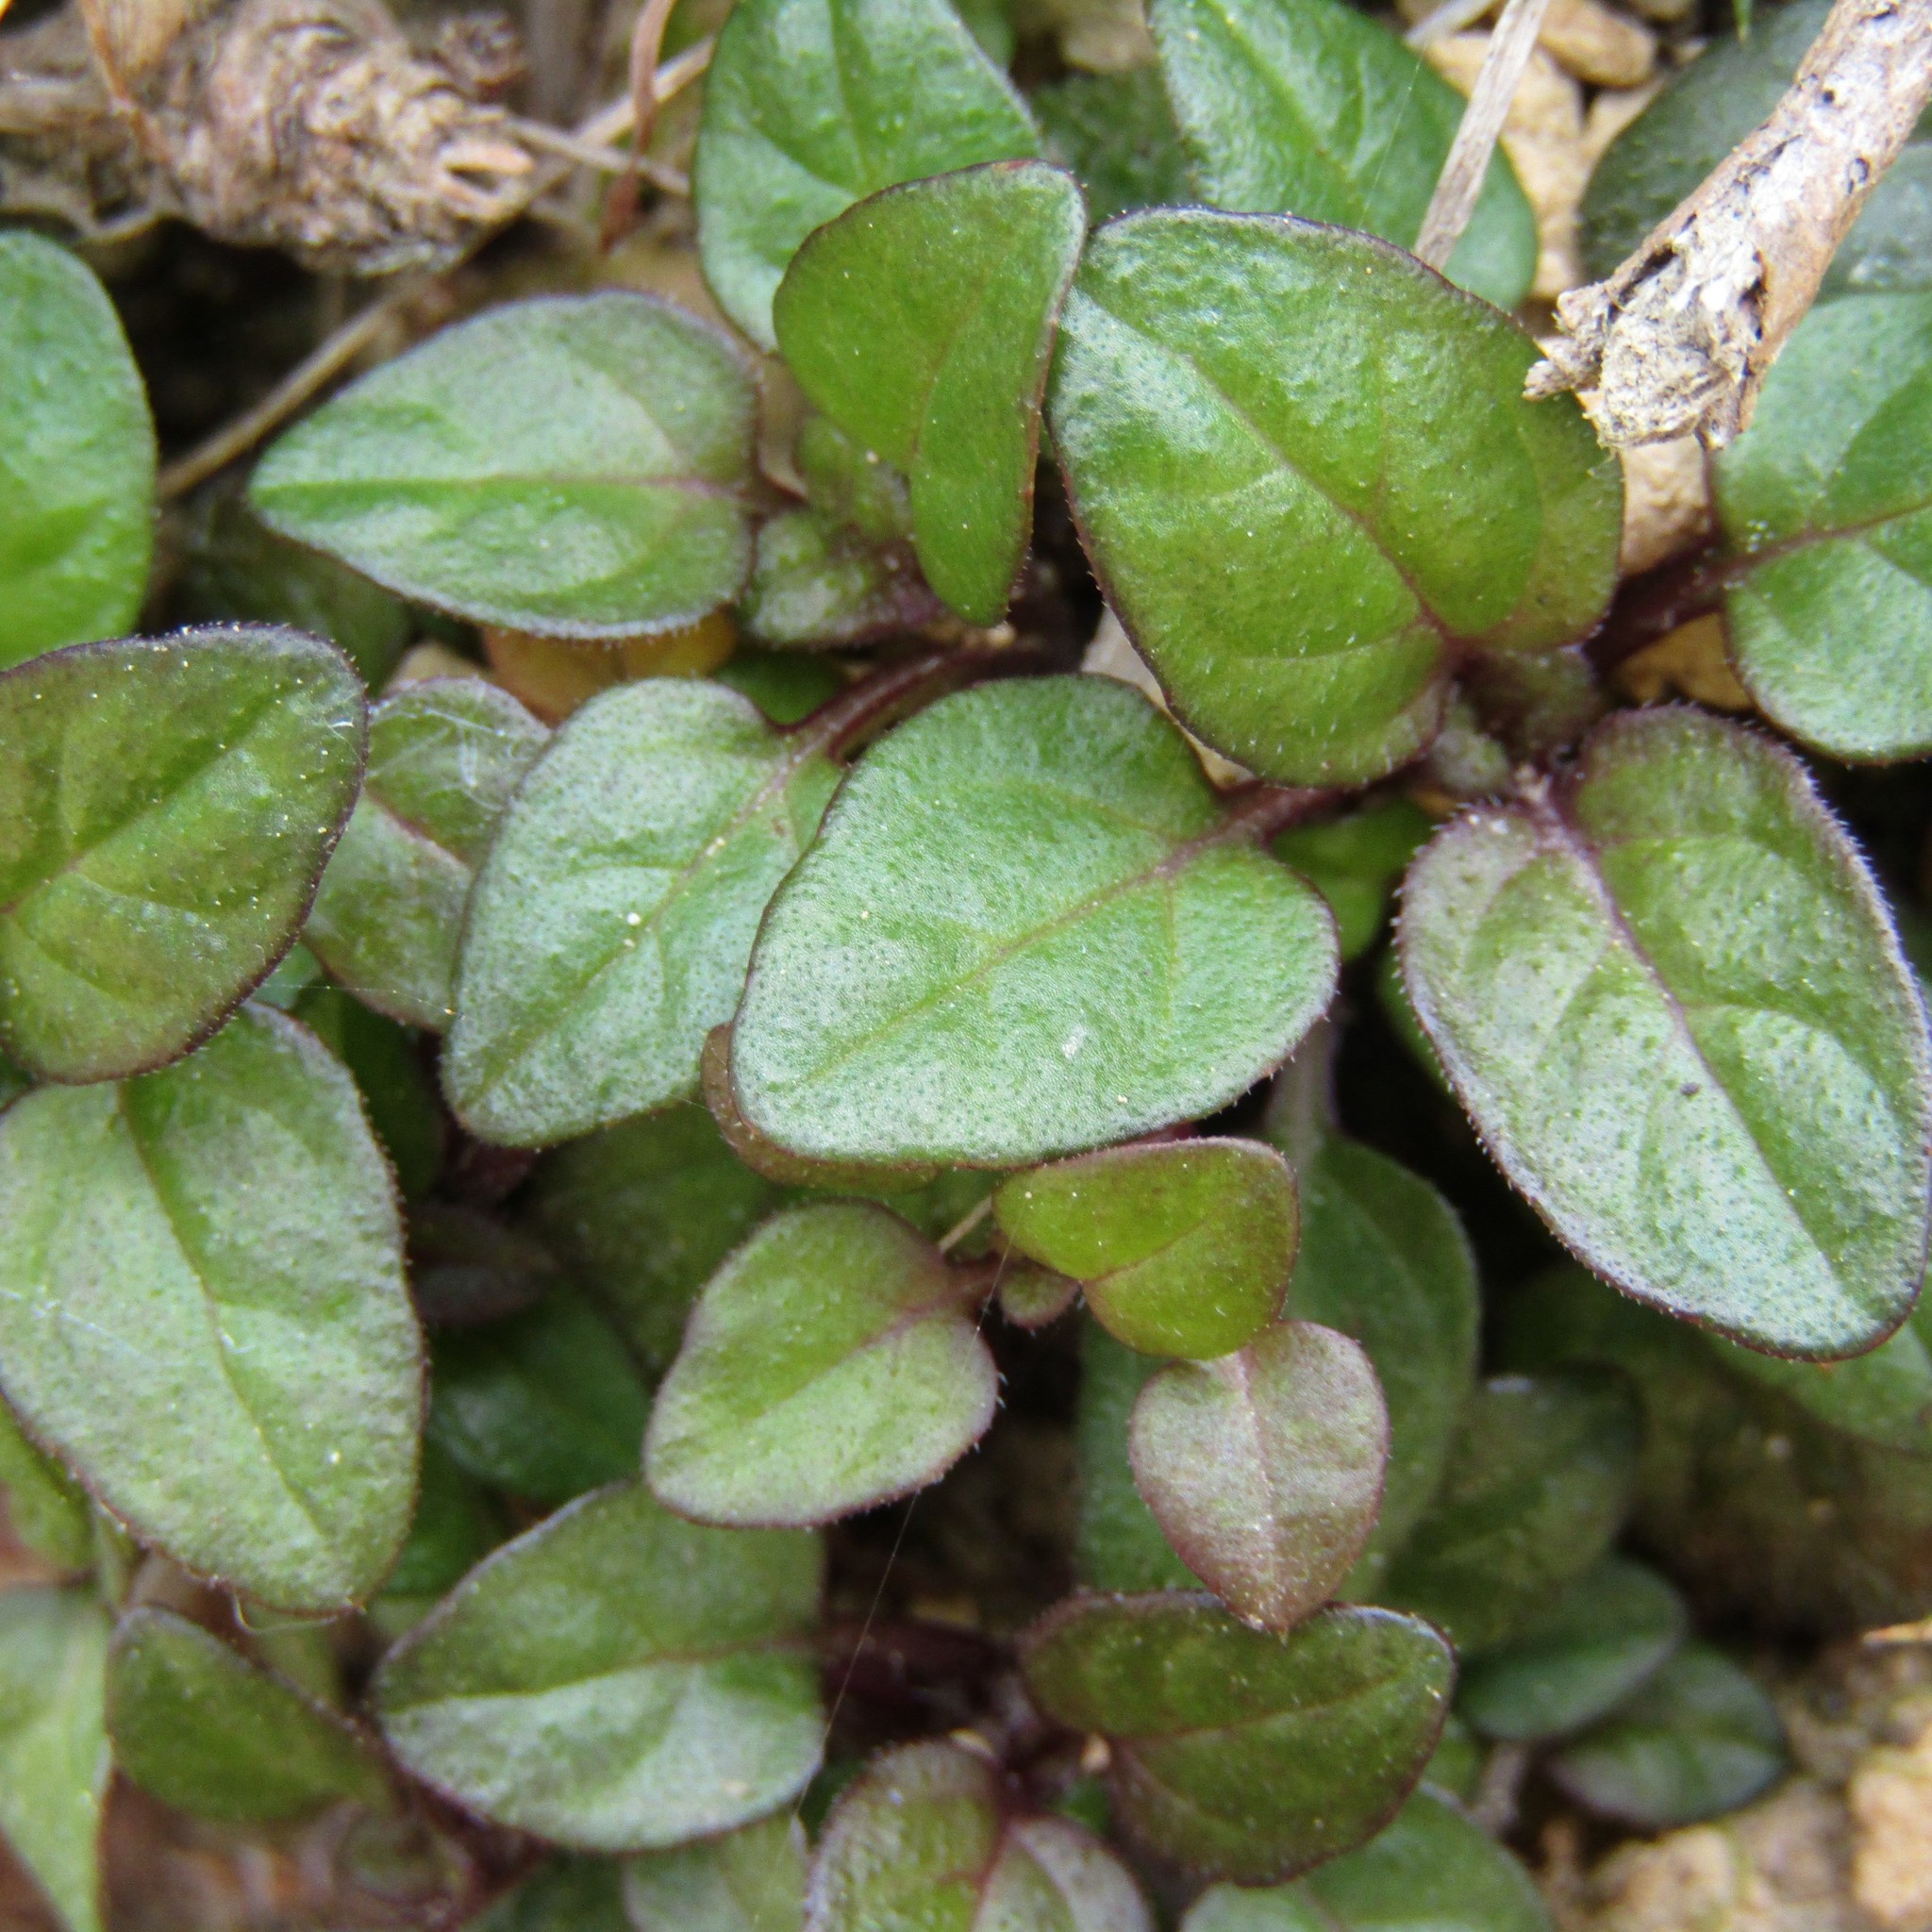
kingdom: Plantae
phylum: Tracheophyta
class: Magnoliopsida
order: Lamiales
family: Lamiaceae
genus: Prunella
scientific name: Prunella vulgaris
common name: Heal-all
